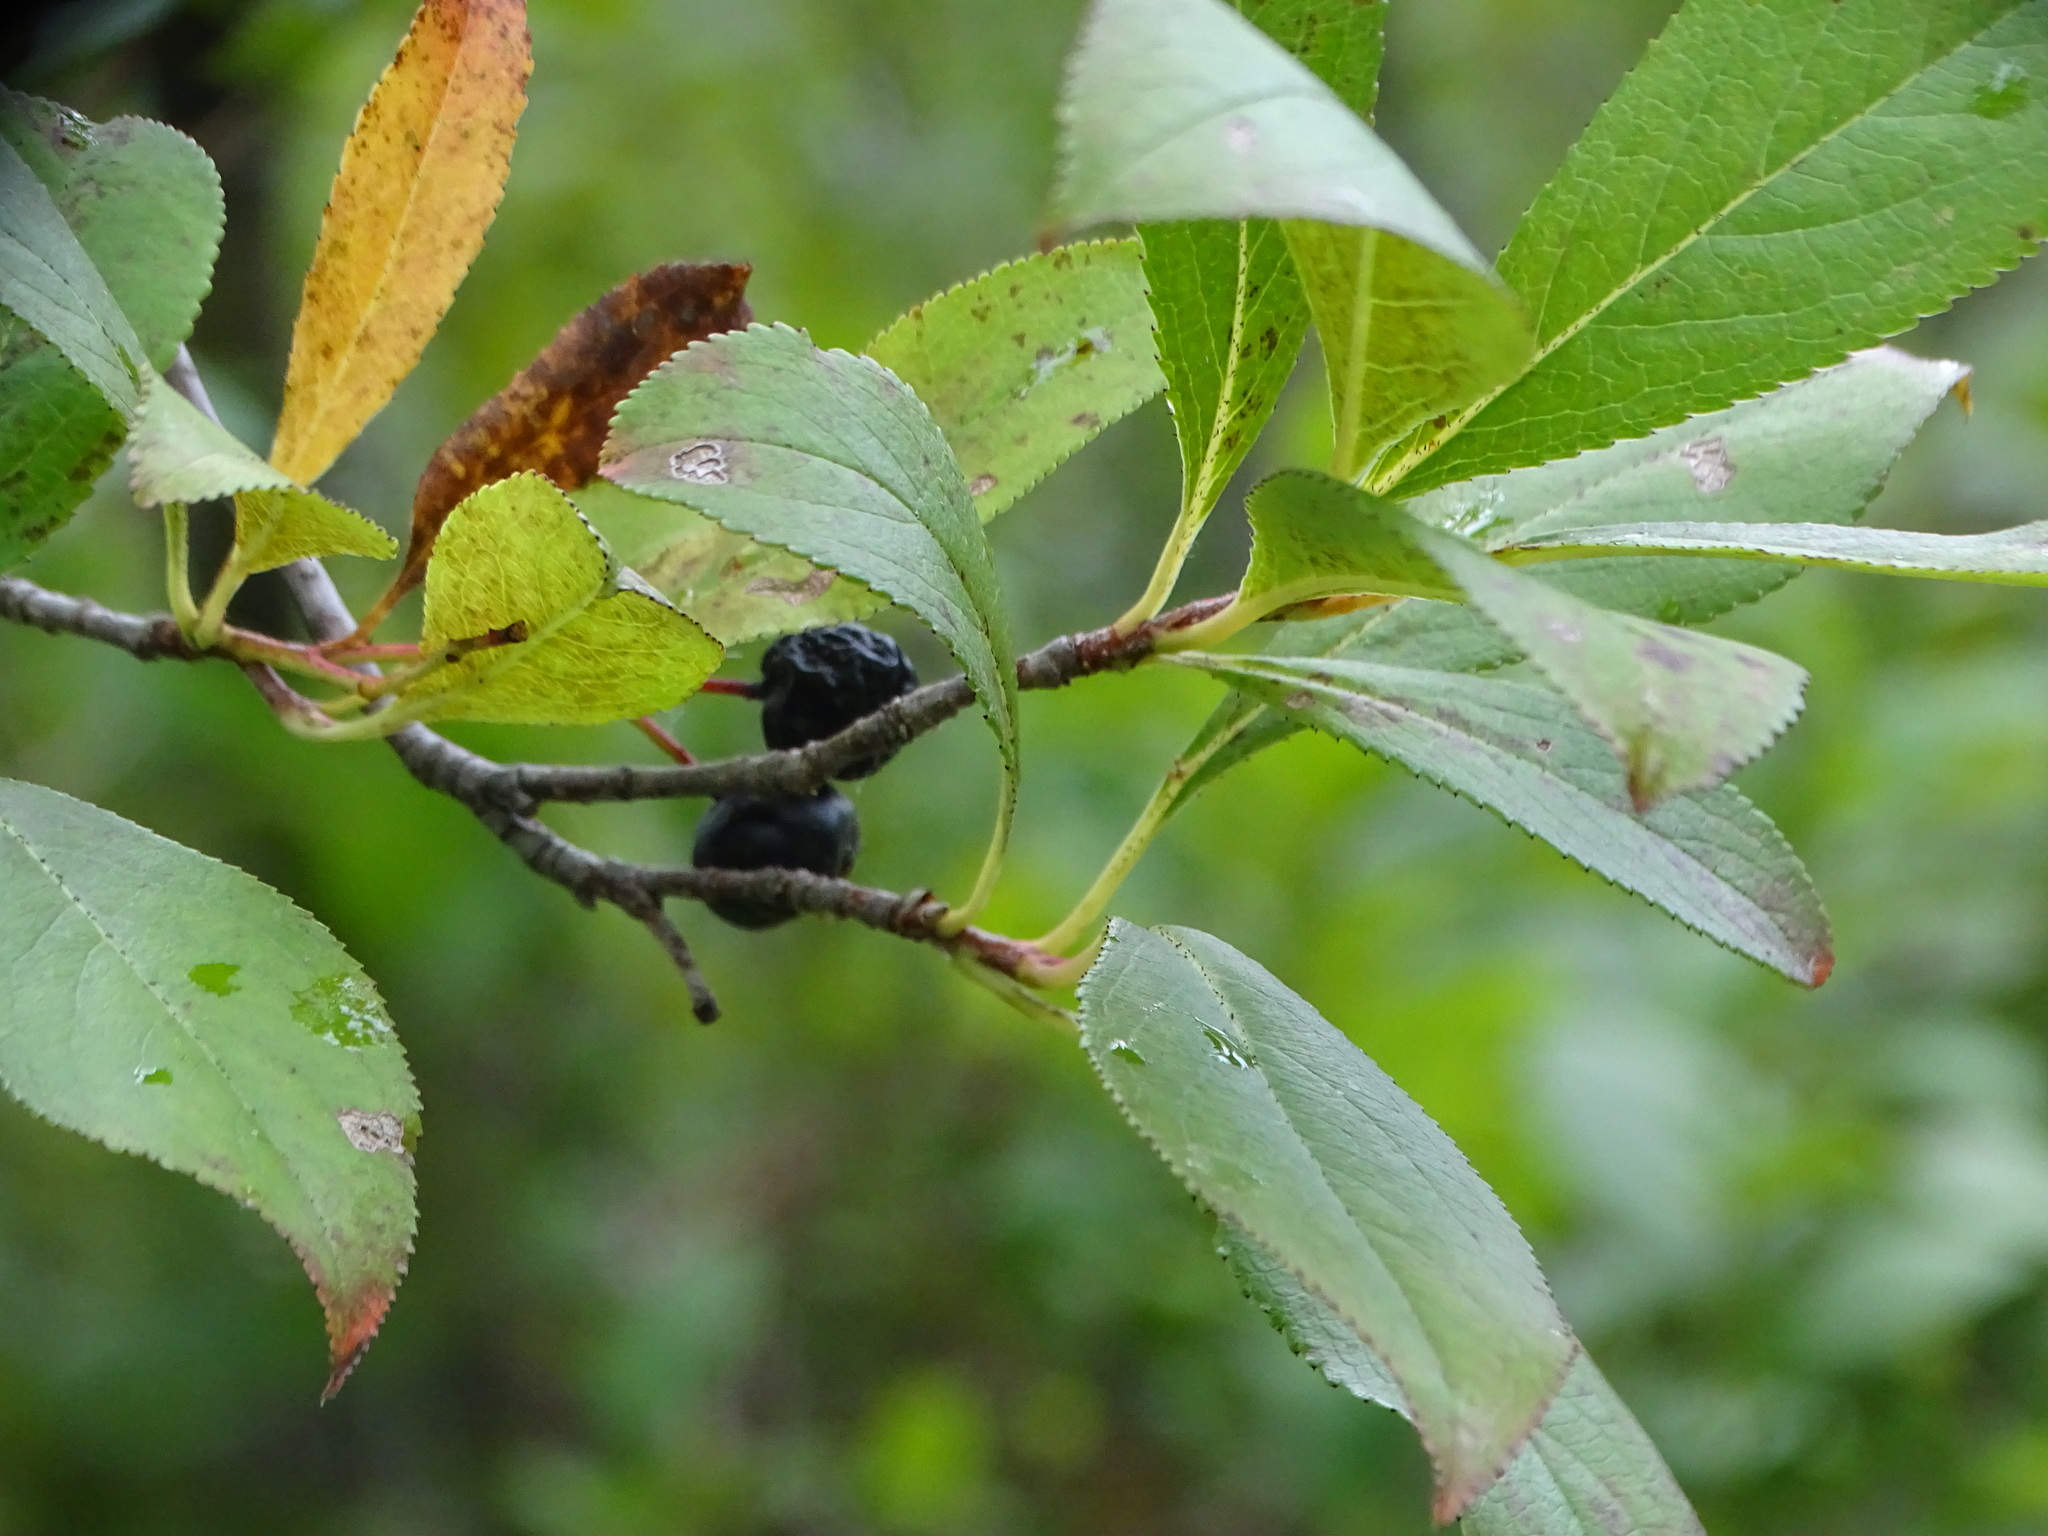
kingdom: Plantae
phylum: Tracheophyta
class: Magnoliopsida
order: Rosales
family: Rosaceae
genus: Aronia
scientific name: Aronia melanocarpa
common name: Black chokeberry
